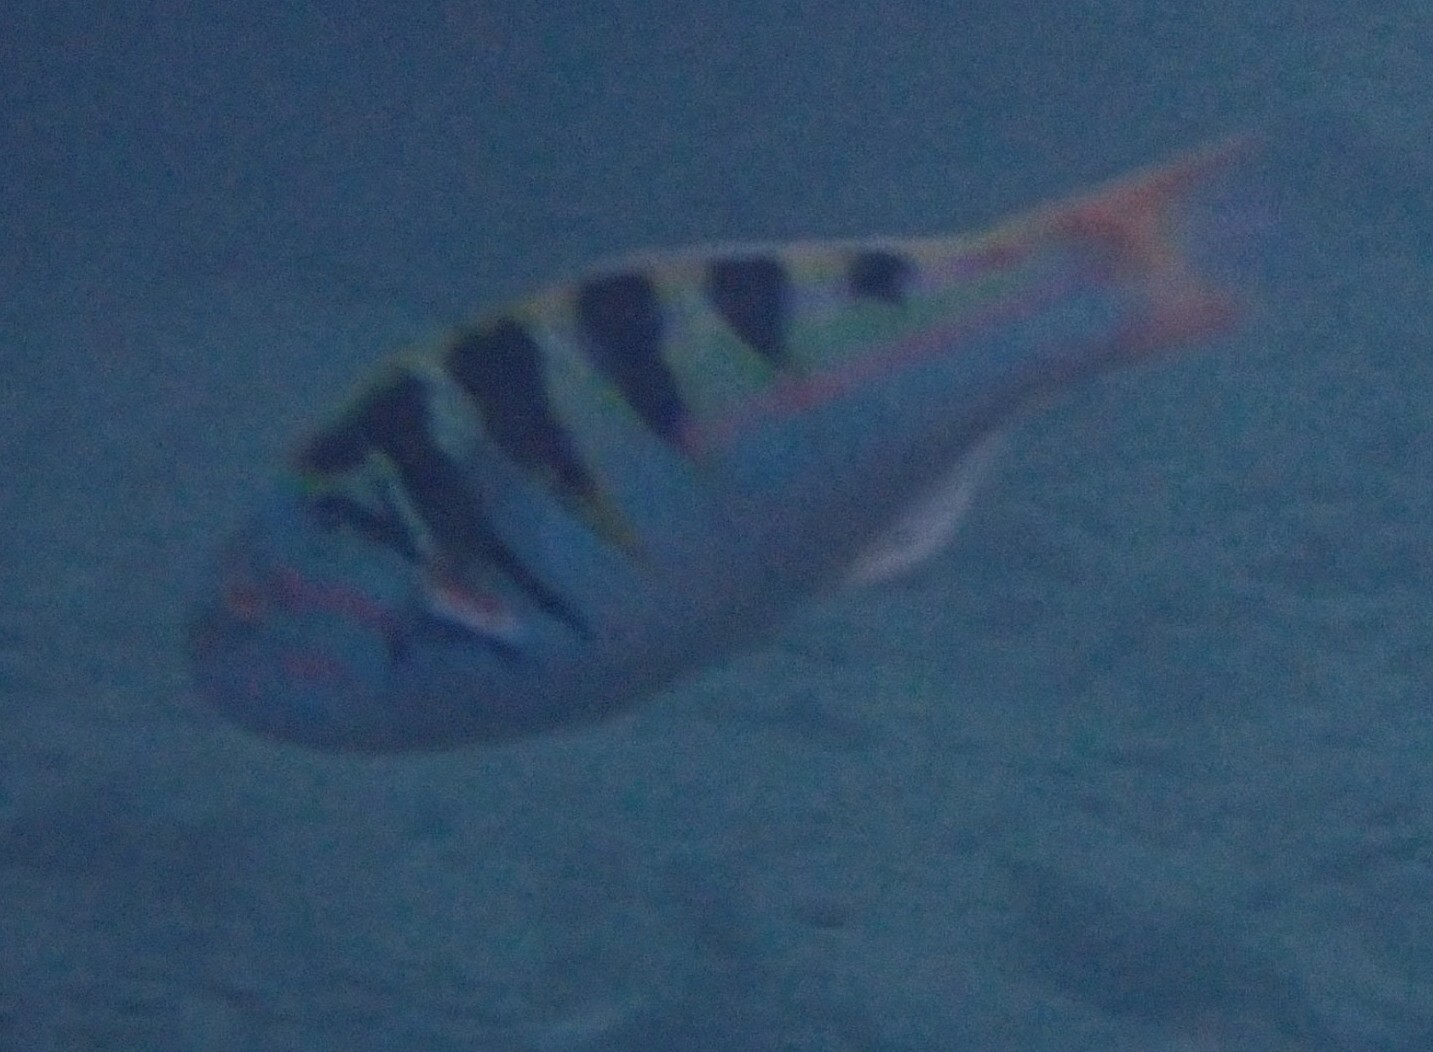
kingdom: Animalia
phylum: Chordata
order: Perciformes
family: Labridae
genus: Thalassoma
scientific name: Thalassoma hardwicke
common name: Sixbar wrasse
